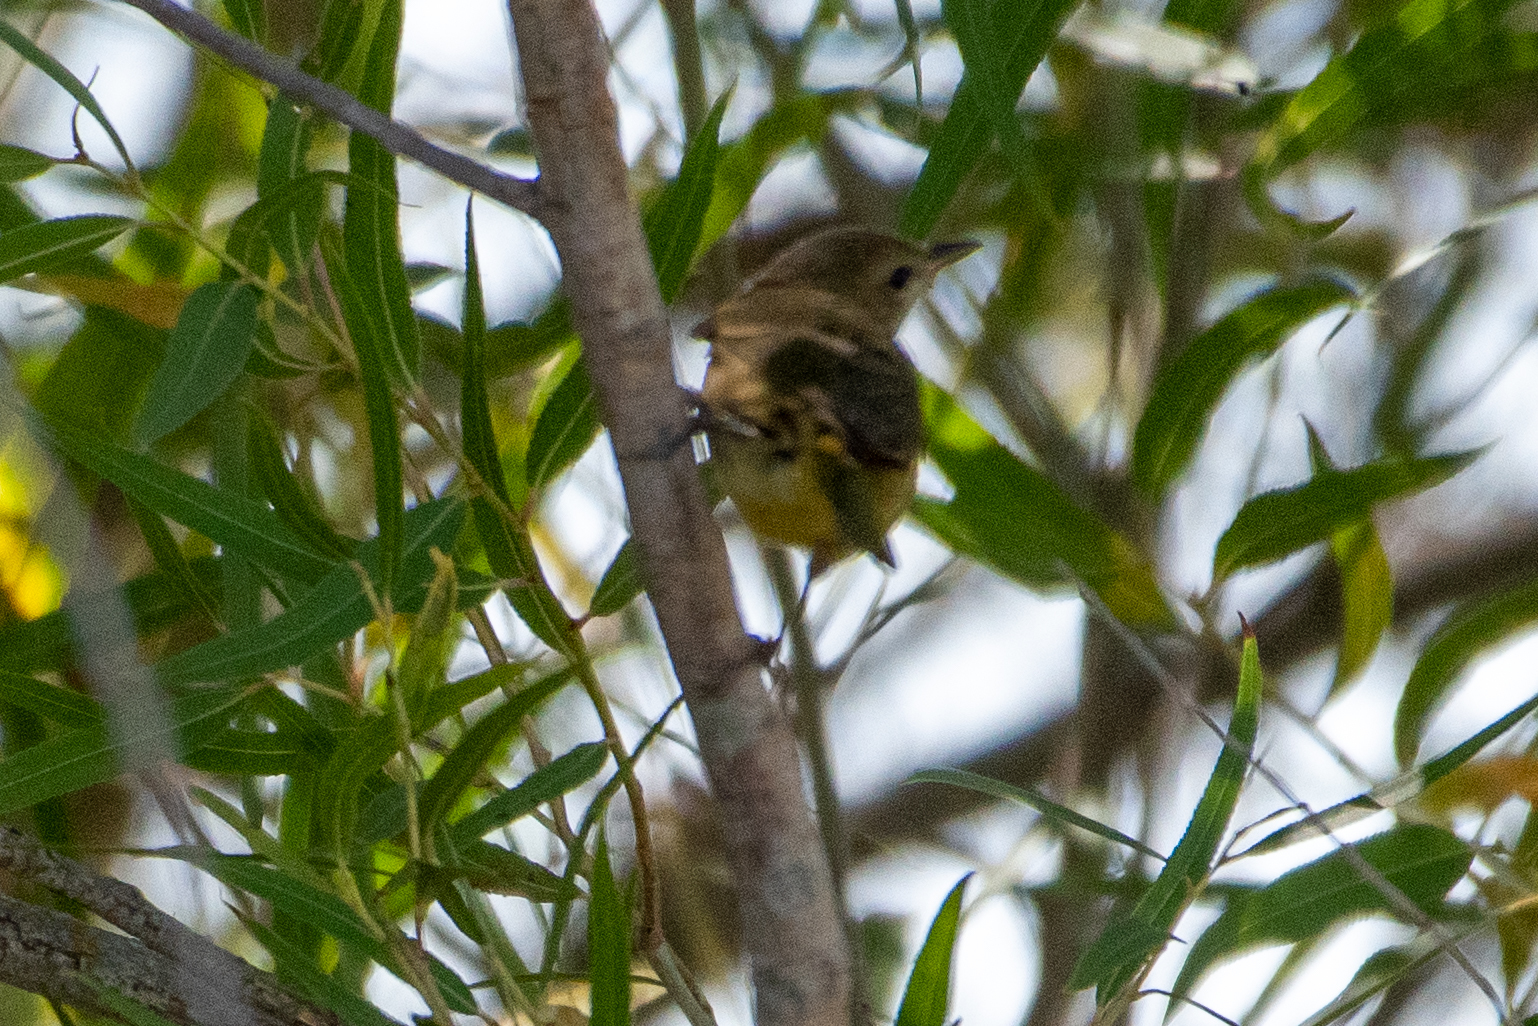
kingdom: Animalia
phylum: Chordata
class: Aves
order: Passeriformes
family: Vireonidae
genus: Vireo
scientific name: Vireo gilvus
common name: Warbling vireo
